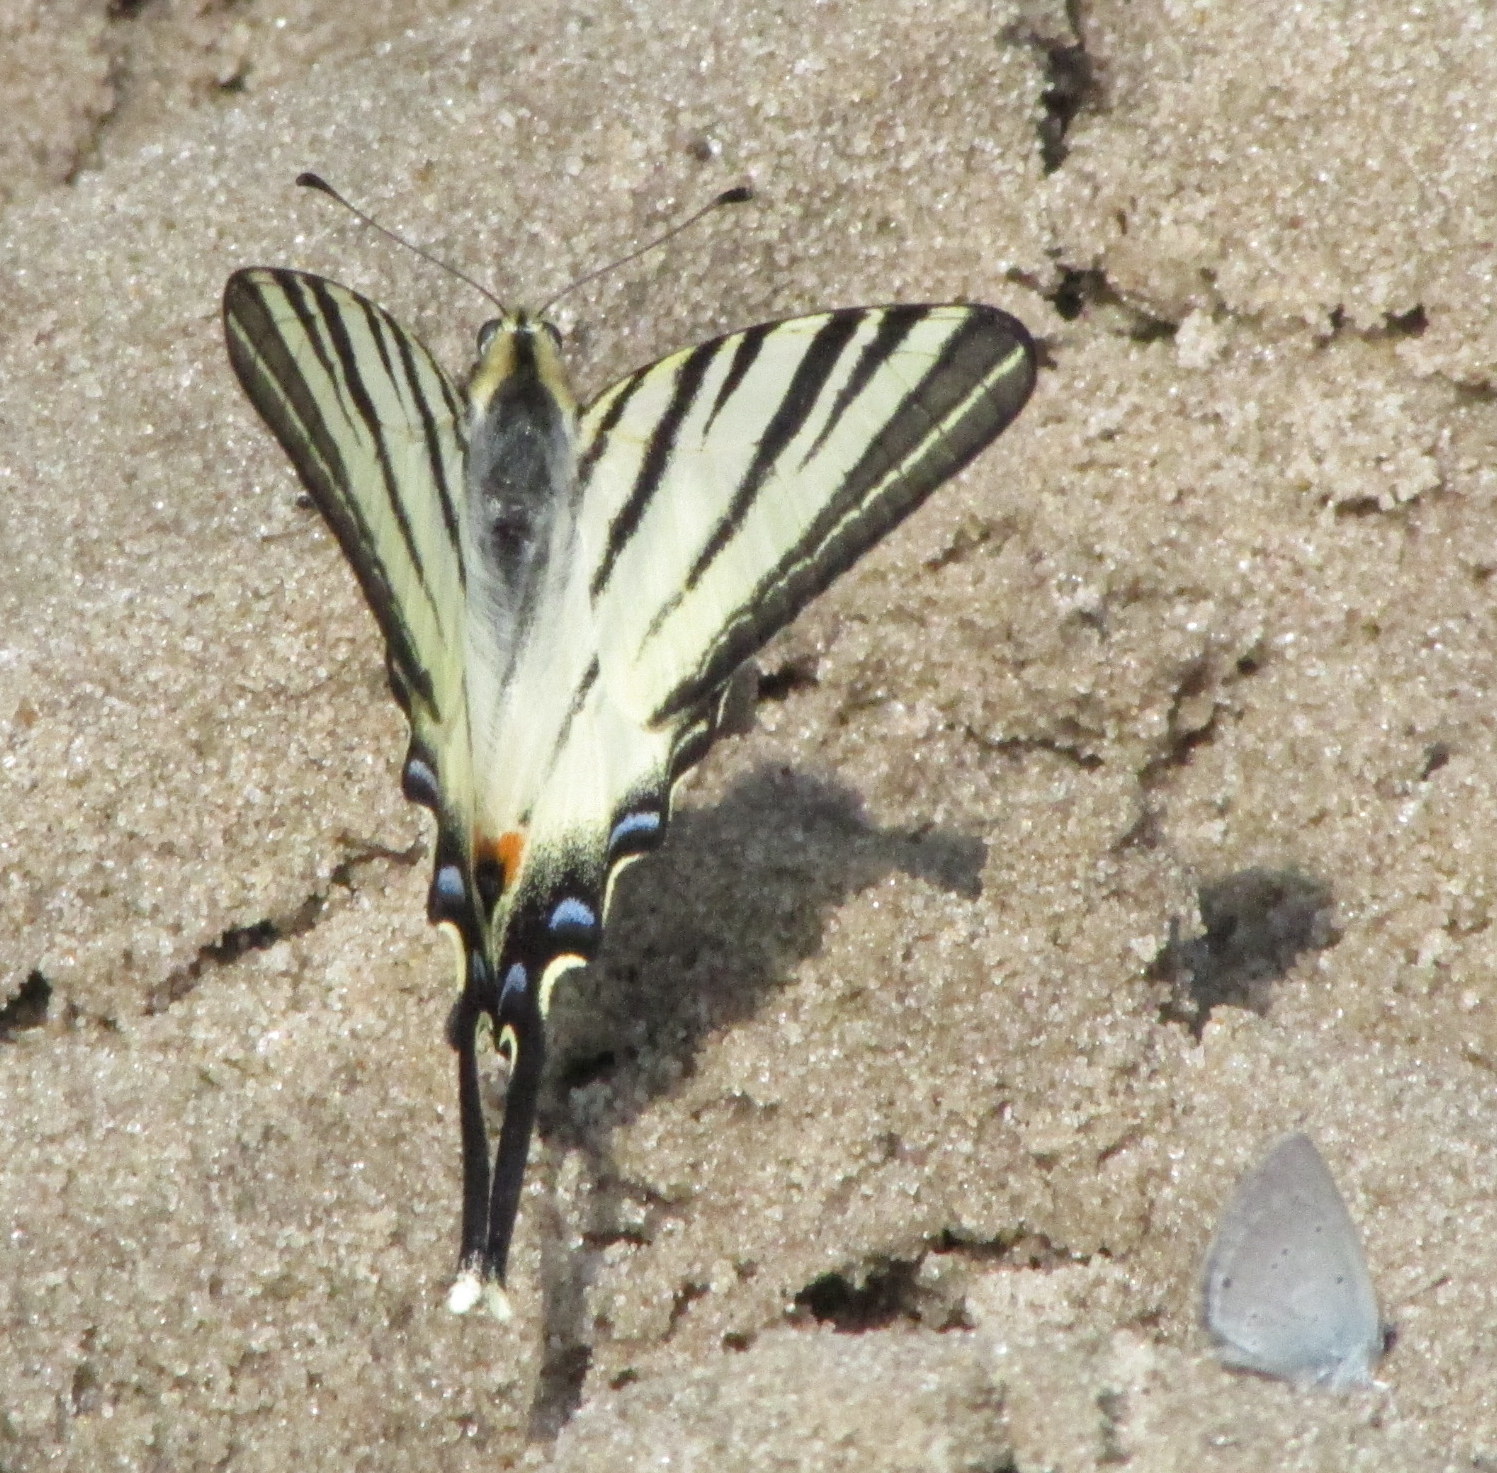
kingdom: Animalia
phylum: Arthropoda
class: Insecta
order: Lepidoptera
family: Papilionidae
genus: Iphiclides
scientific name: Iphiclides podalirius
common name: Scarce swallowtail
